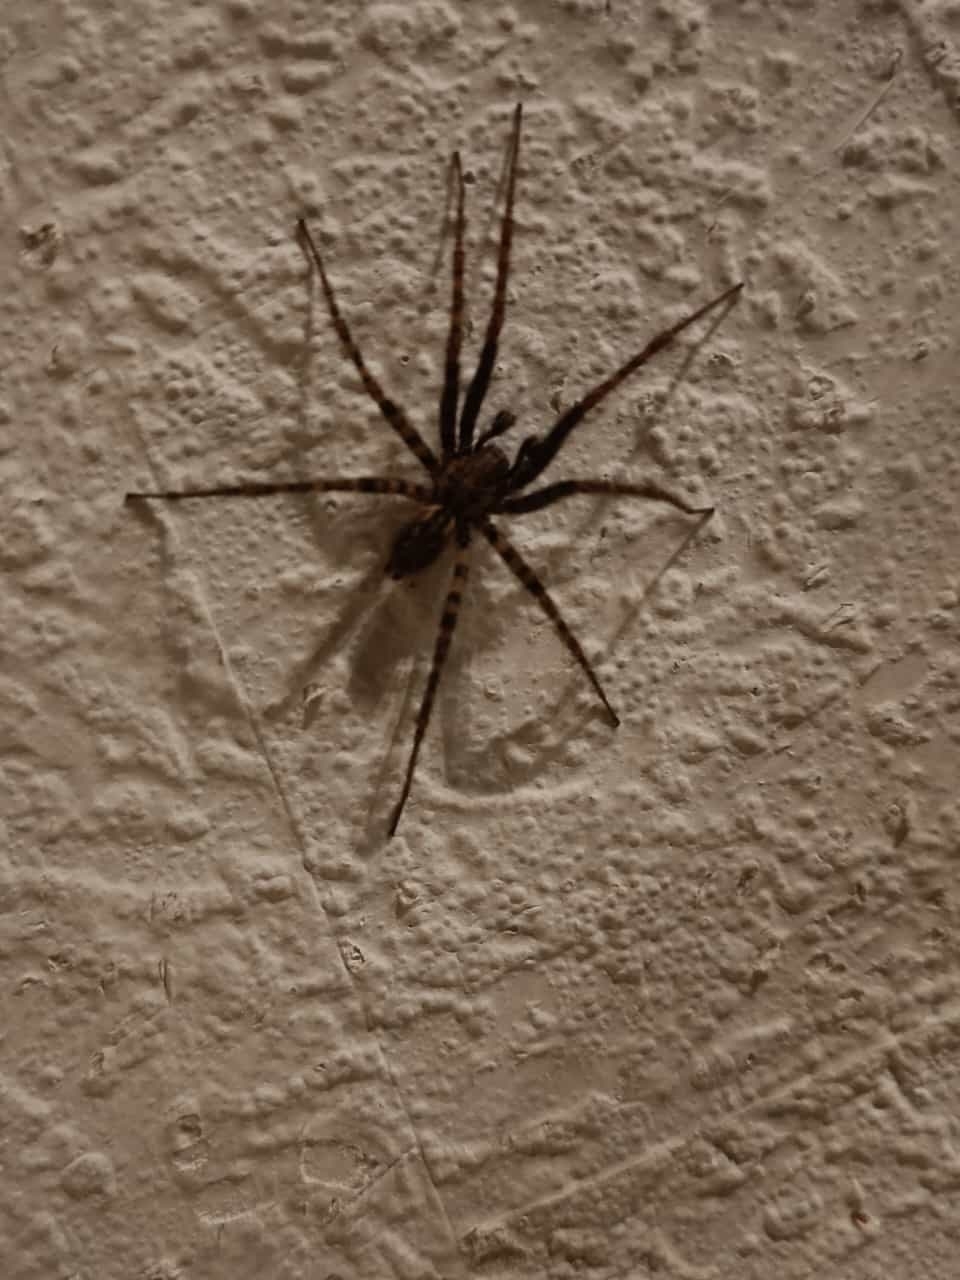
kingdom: Animalia
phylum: Arthropoda
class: Arachnida
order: Araneae
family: Agelenidae
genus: Tegenaria
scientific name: Tegenaria ferruginea
